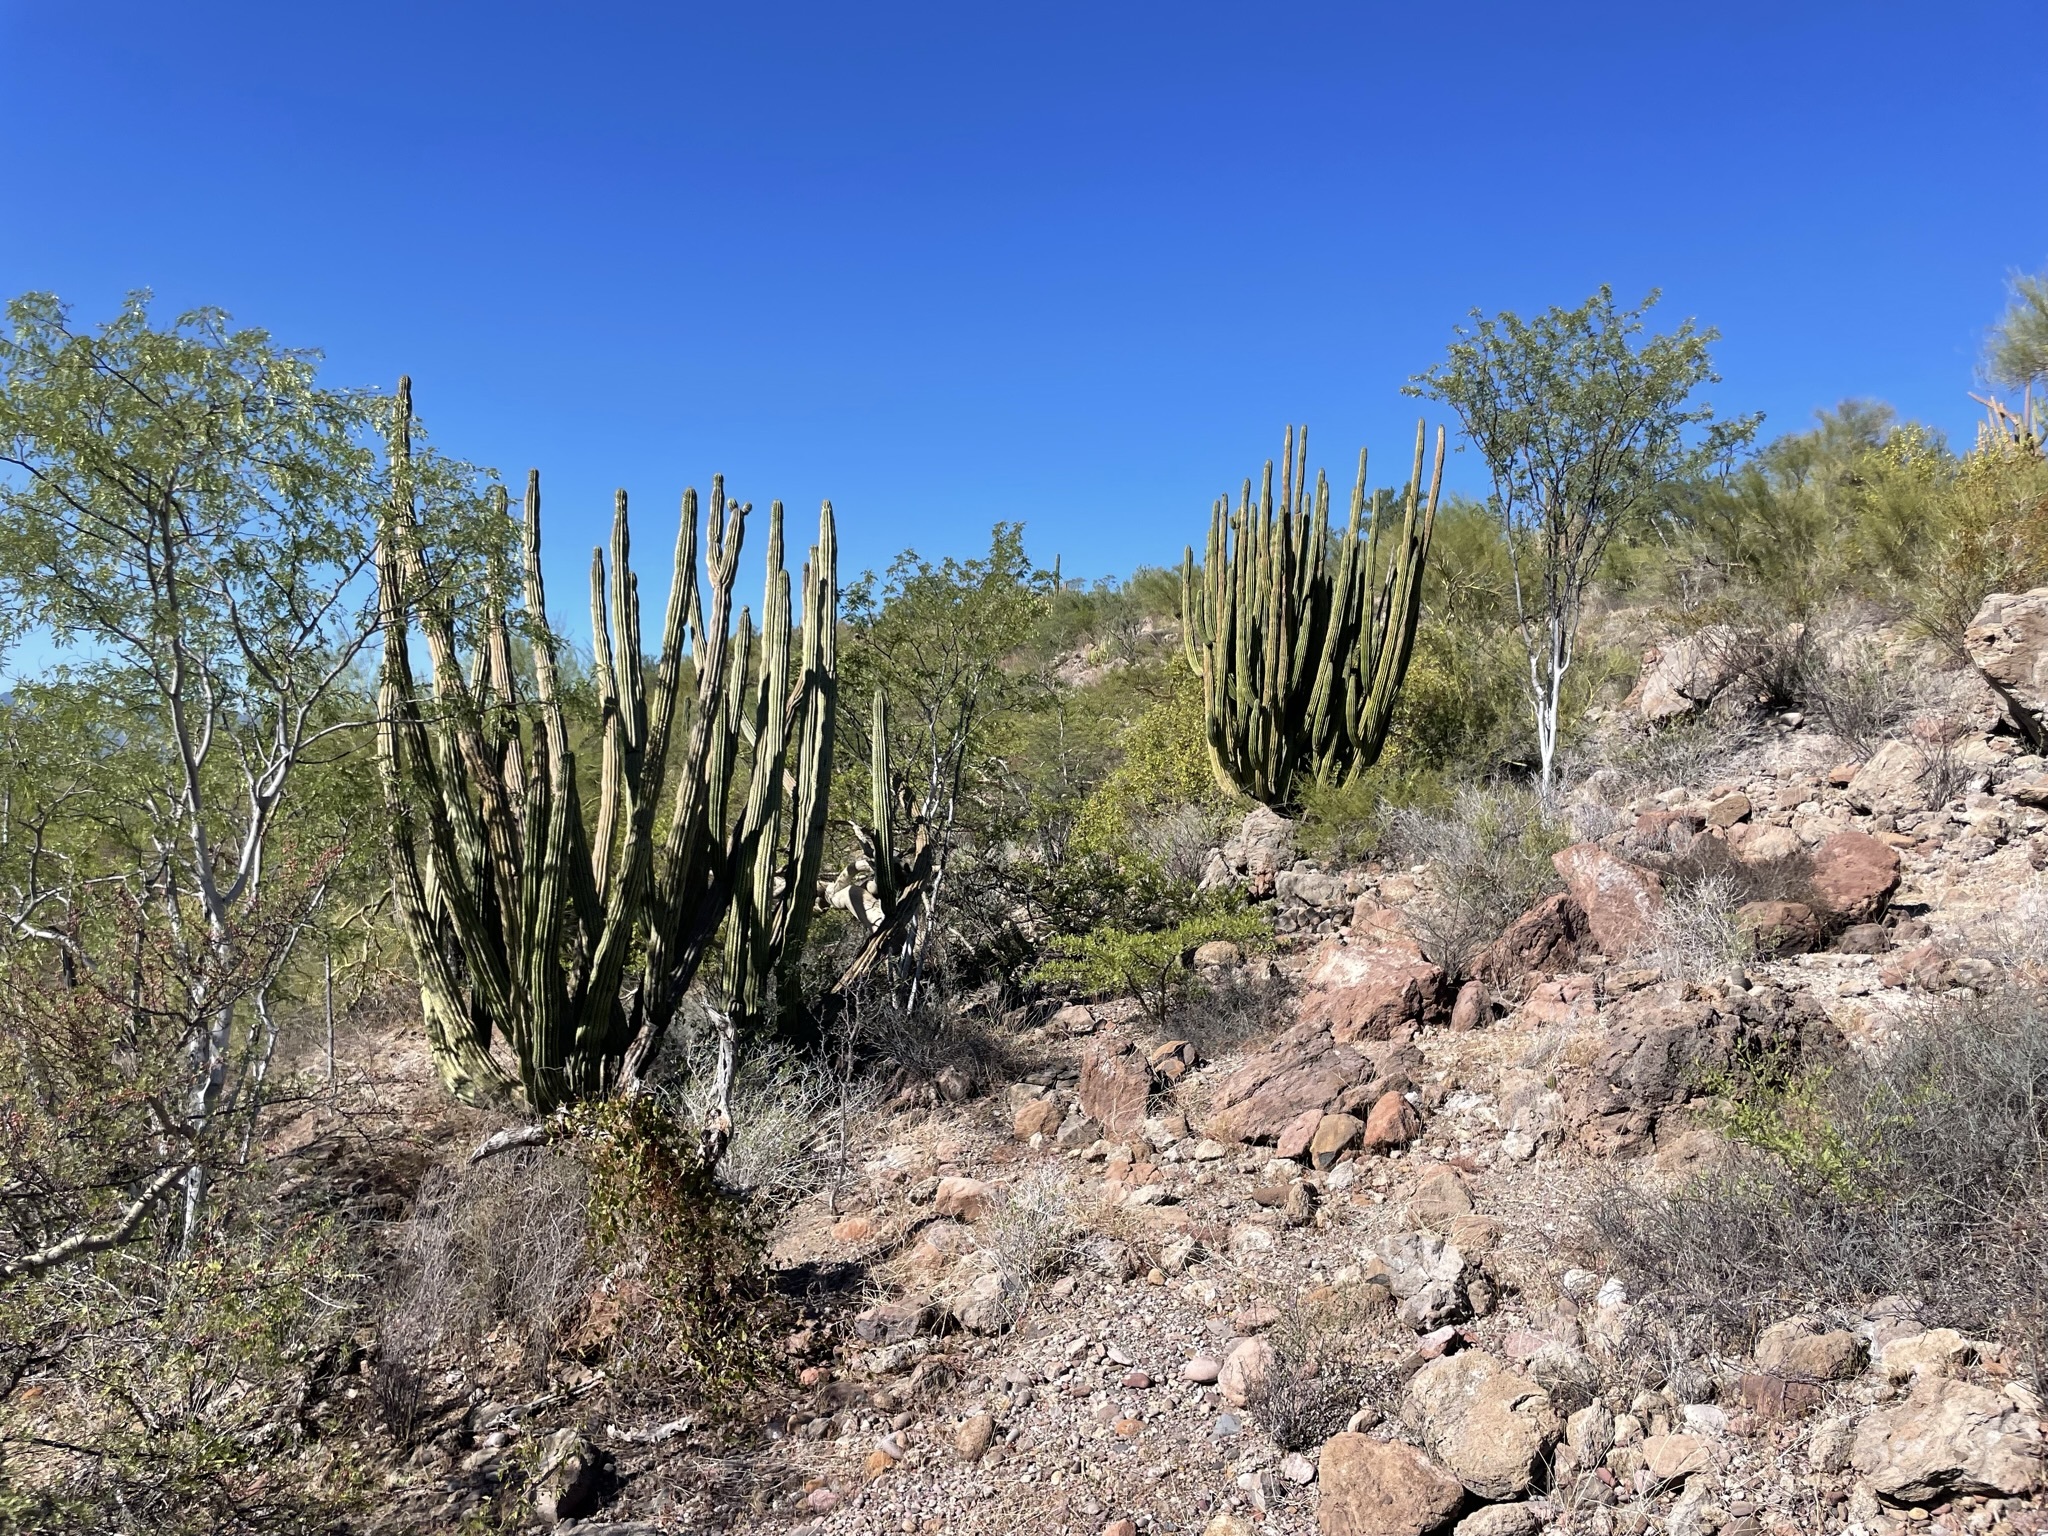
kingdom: Plantae
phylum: Tracheophyta
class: Magnoliopsida
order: Caryophyllales
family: Cactaceae
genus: Stenocereus
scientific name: Stenocereus thurberi
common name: Organ pipe cactus
